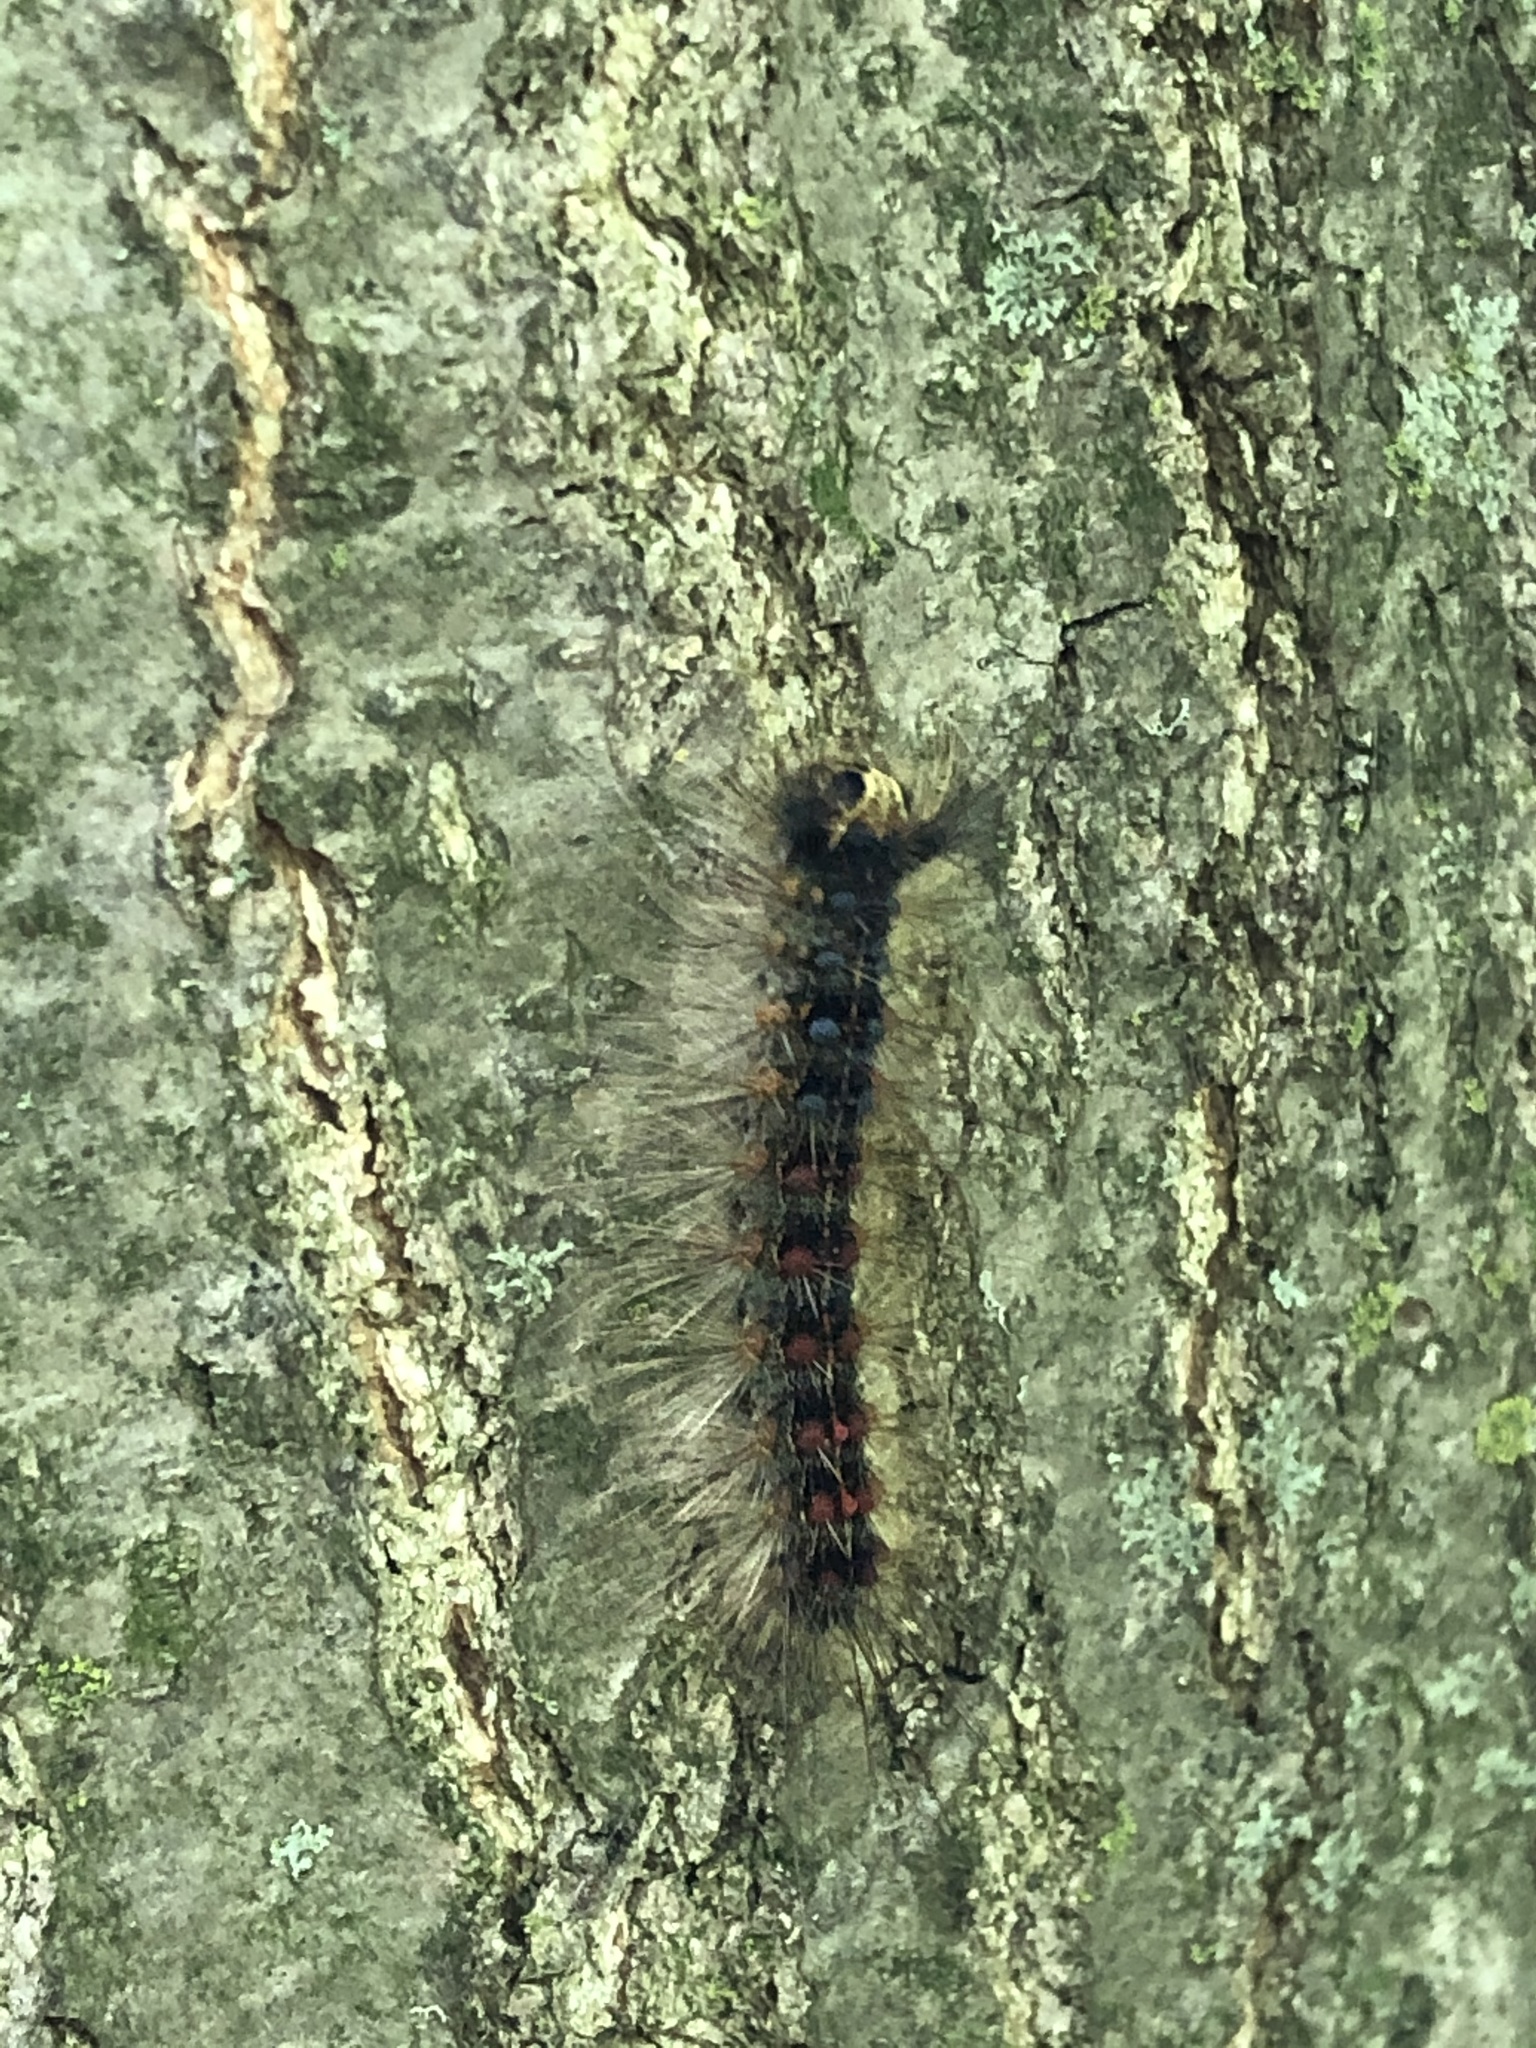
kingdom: Animalia
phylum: Arthropoda
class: Insecta
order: Lepidoptera
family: Erebidae
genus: Lymantria
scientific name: Lymantria dispar
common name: Gypsy moth
